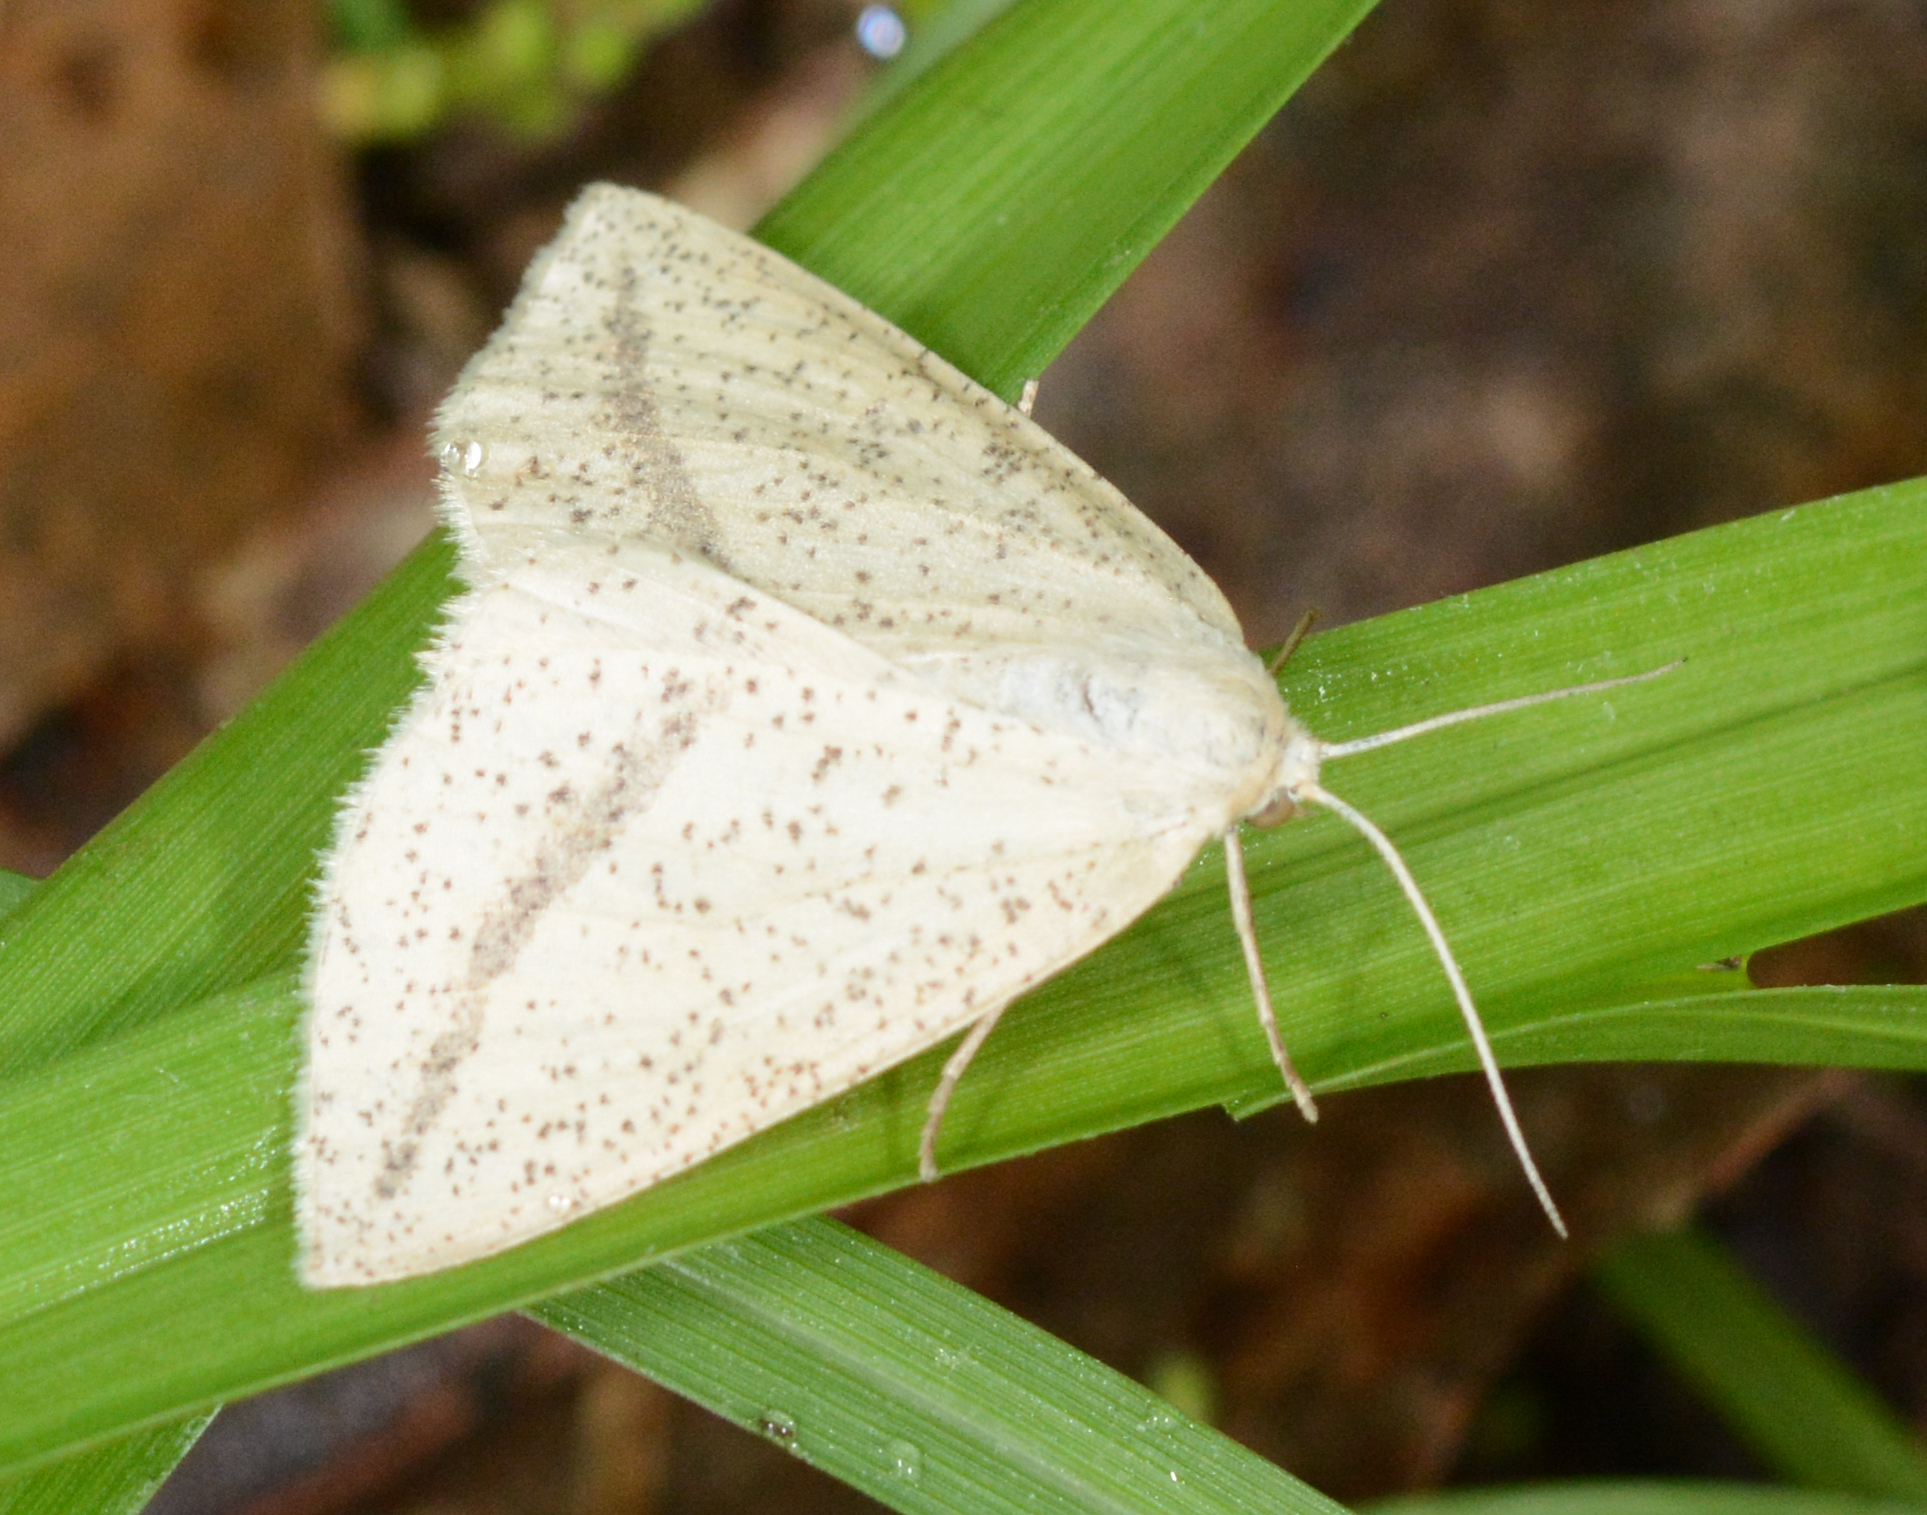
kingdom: Animalia
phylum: Arthropoda
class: Insecta
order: Lepidoptera
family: Geometridae
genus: Lychnosea
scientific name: Lychnosea intermicata
